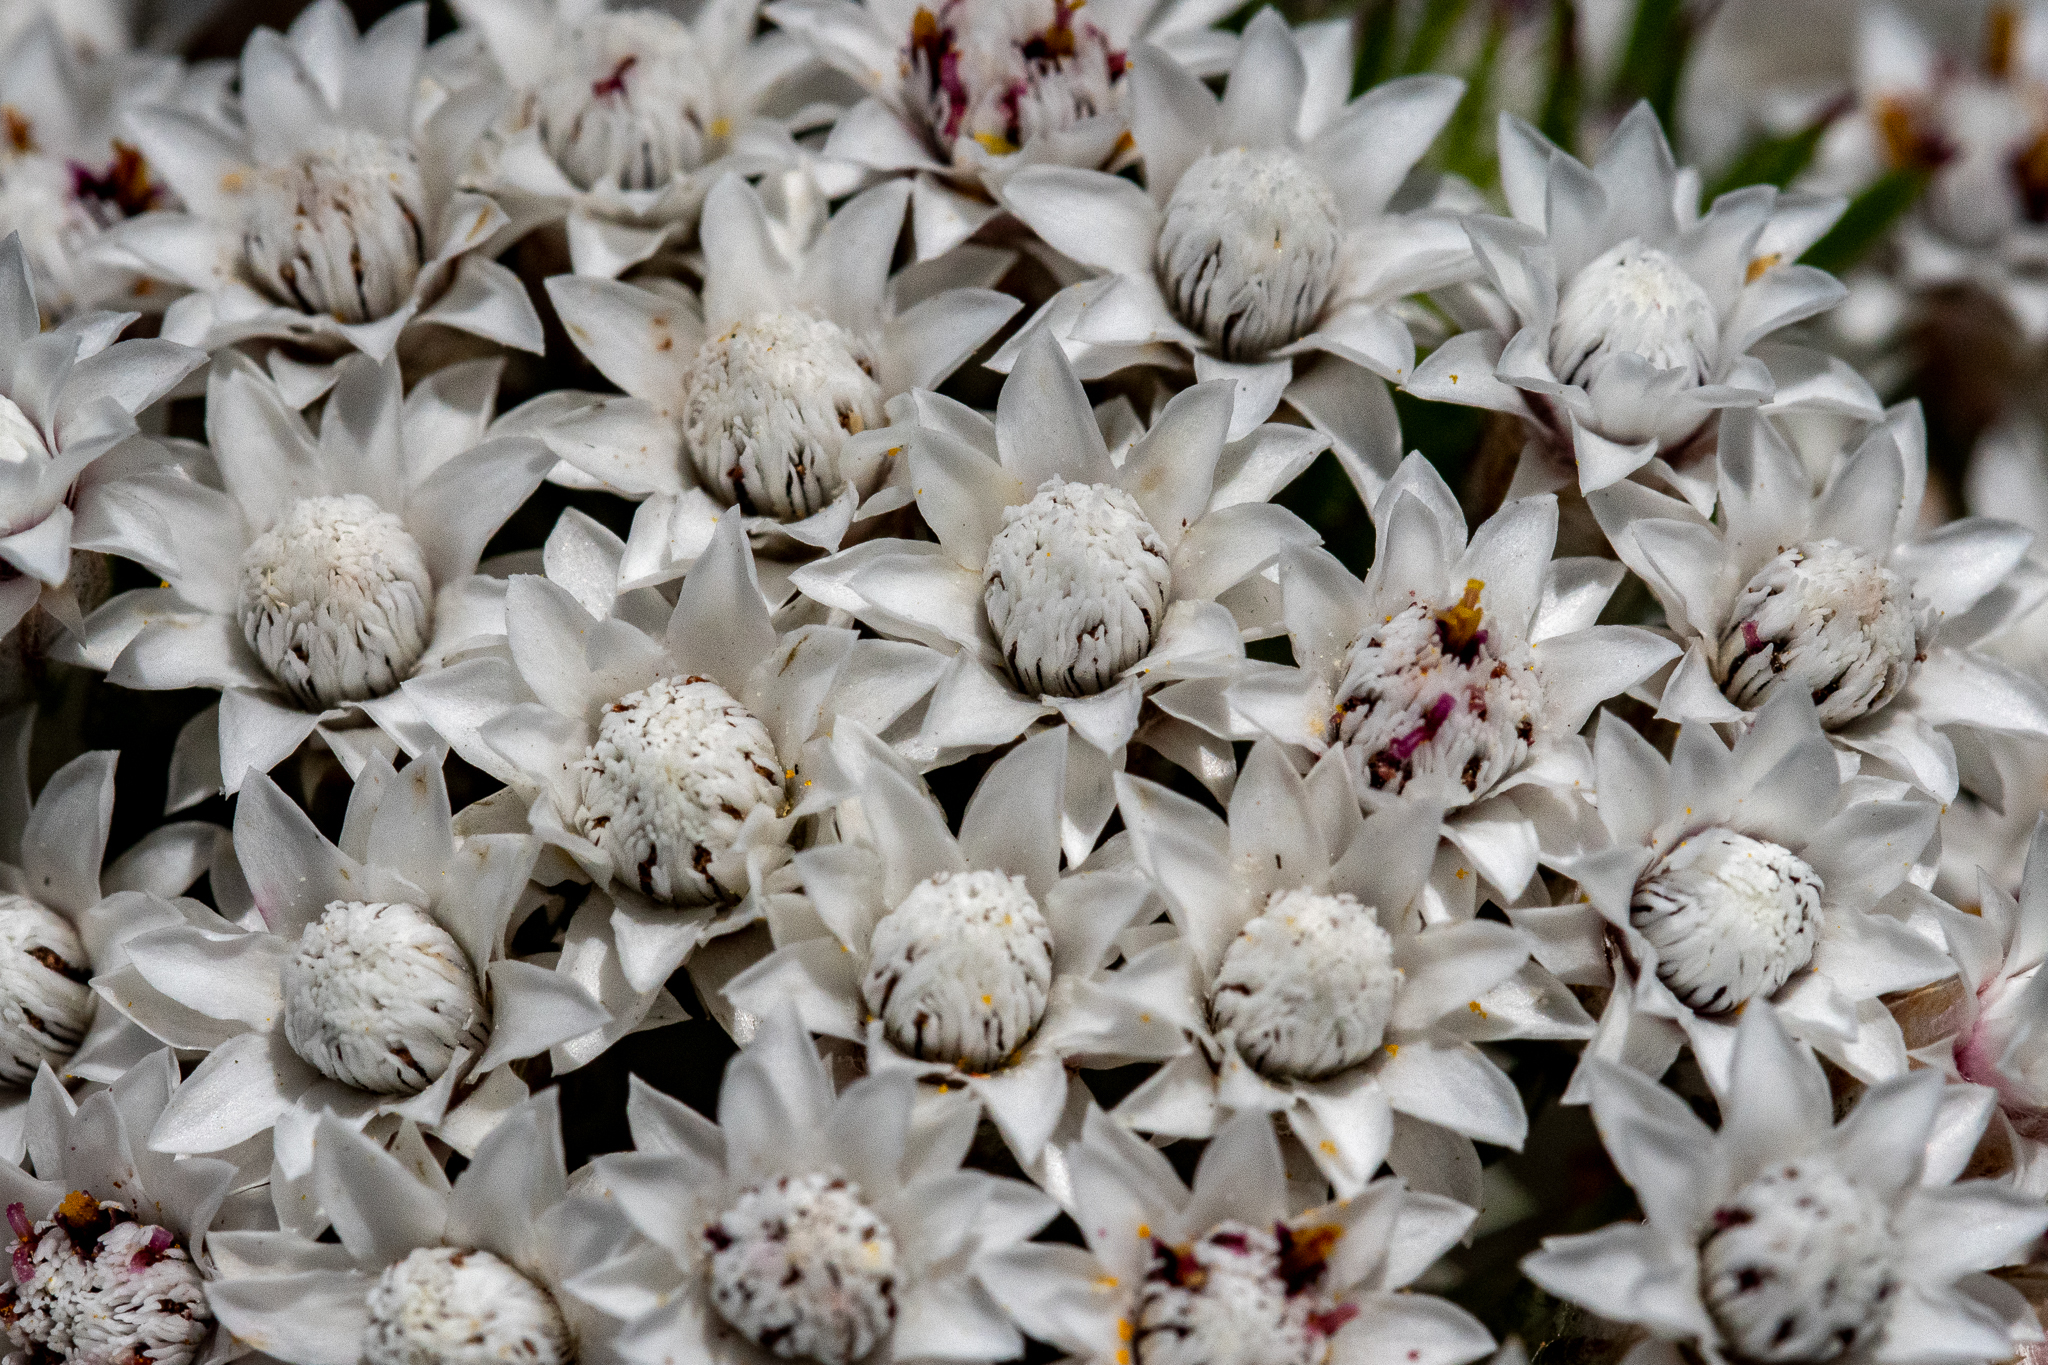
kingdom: Plantae
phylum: Tracheophyta
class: Magnoliopsida
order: Asterales
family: Asteraceae
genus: Metalasia
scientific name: Metalasia lichtensteinii
